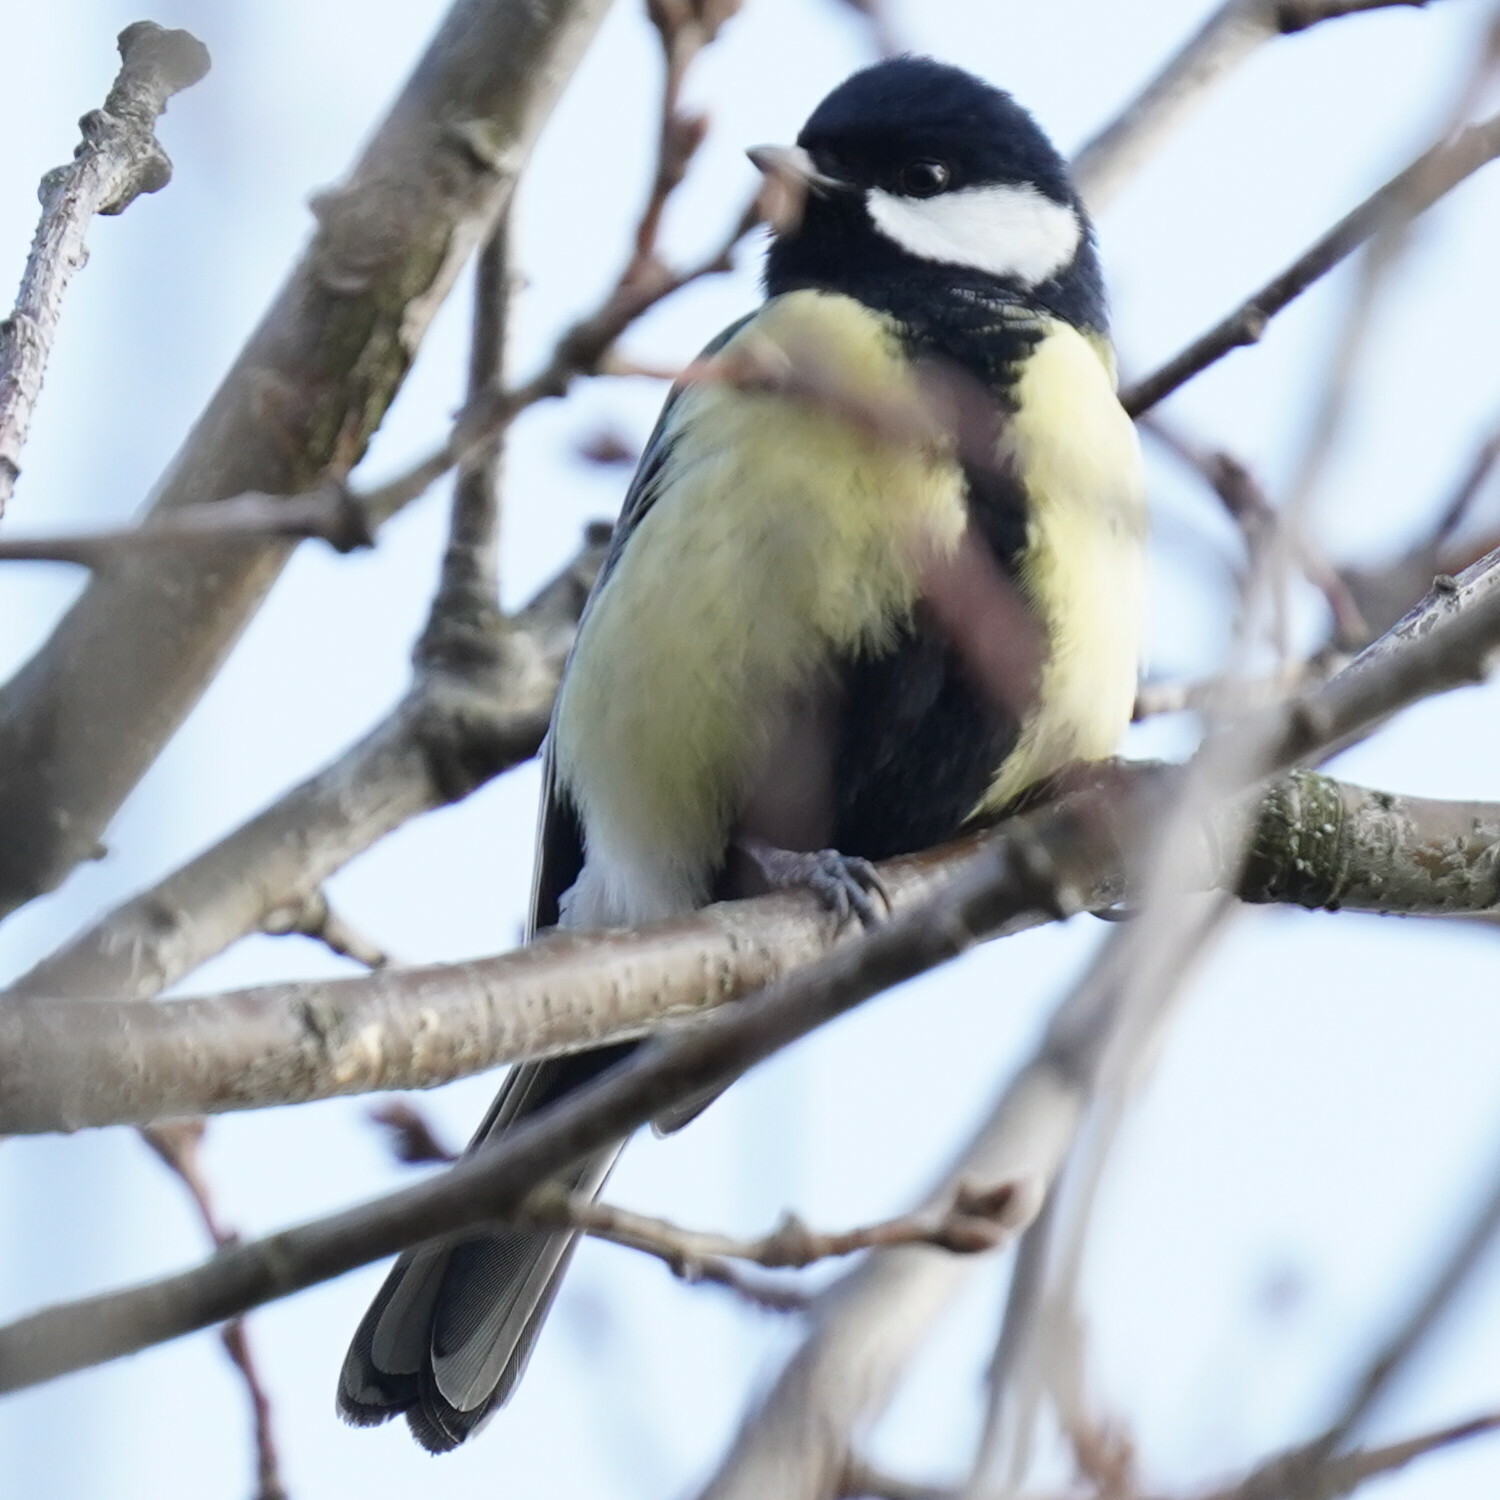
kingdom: Animalia
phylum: Chordata
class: Aves
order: Passeriformes
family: Paridae
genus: Parus
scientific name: Parus major
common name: Great tit
